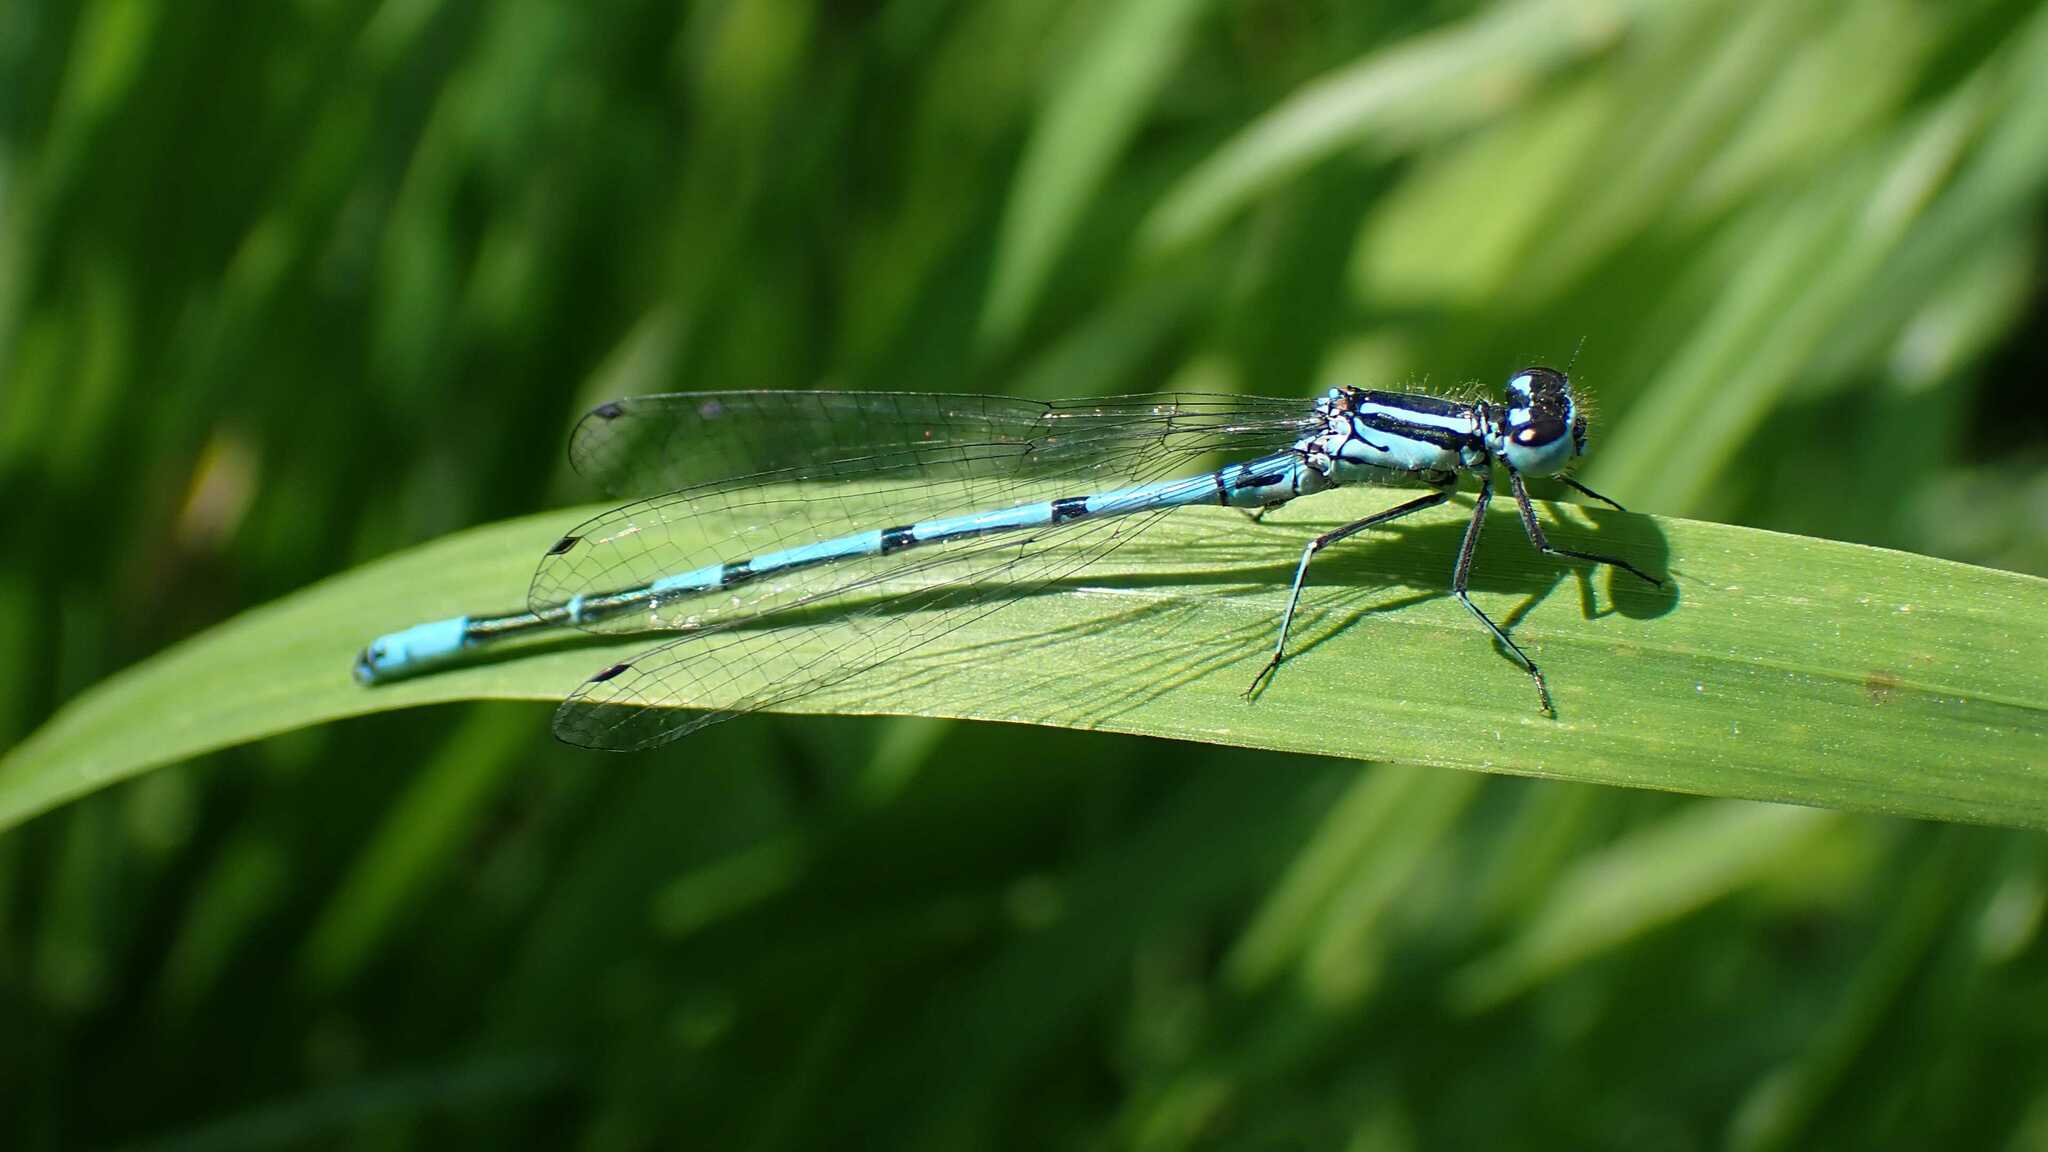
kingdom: Animalia
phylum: Arthropoda
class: Insecta
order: Odonata
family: Coenagrionidae
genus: Coenagrion
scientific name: Coenagrion puella
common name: Azure damselfly
